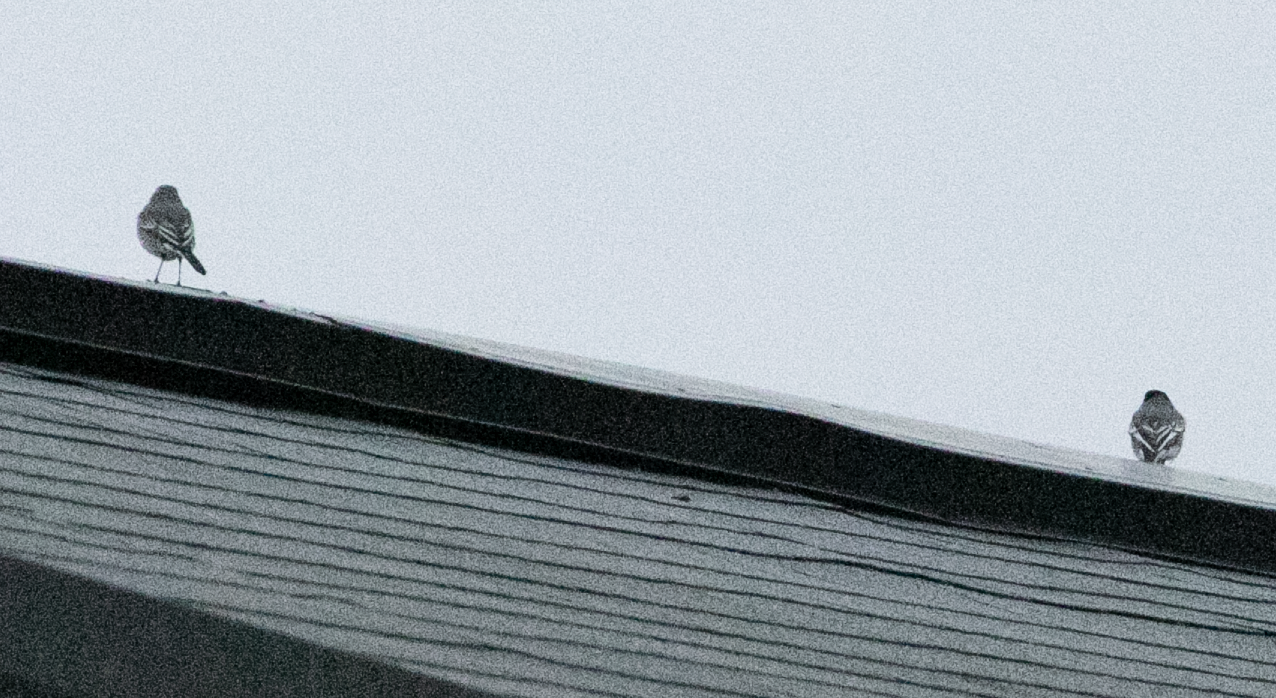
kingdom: Animalia
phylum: Chordata
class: Aves
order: Passeriformes
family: Motacillidae
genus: Motacilla
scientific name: Motacilla alba
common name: White wagtail
